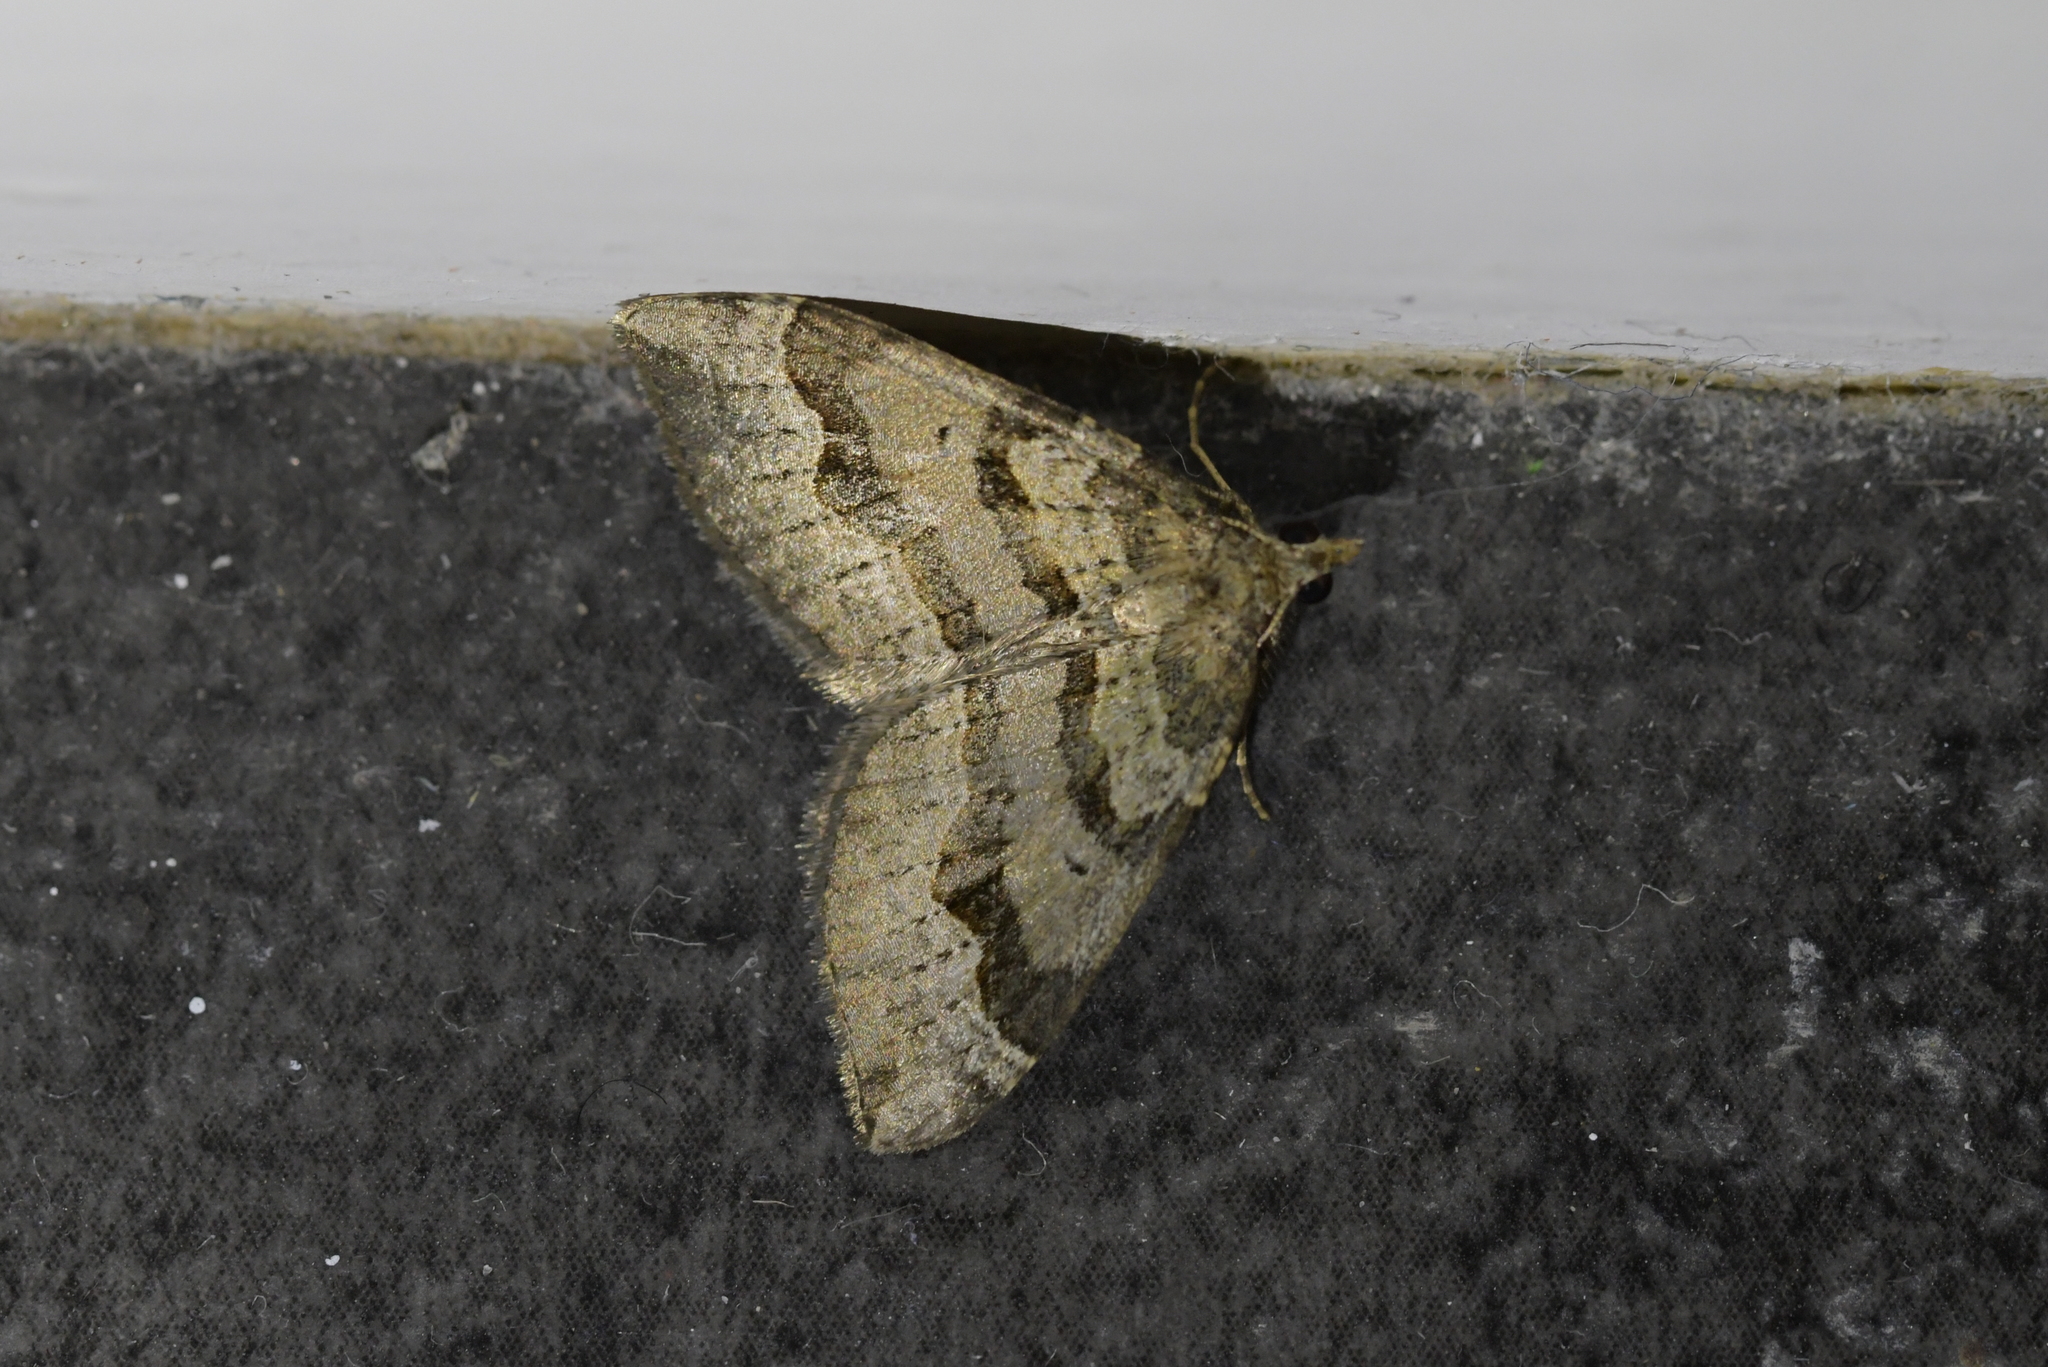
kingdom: Animalia
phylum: Arthropoda
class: Insecta
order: Lepidoptera
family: Geometridae
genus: Epyaxa
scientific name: Epyaxa rosearia
